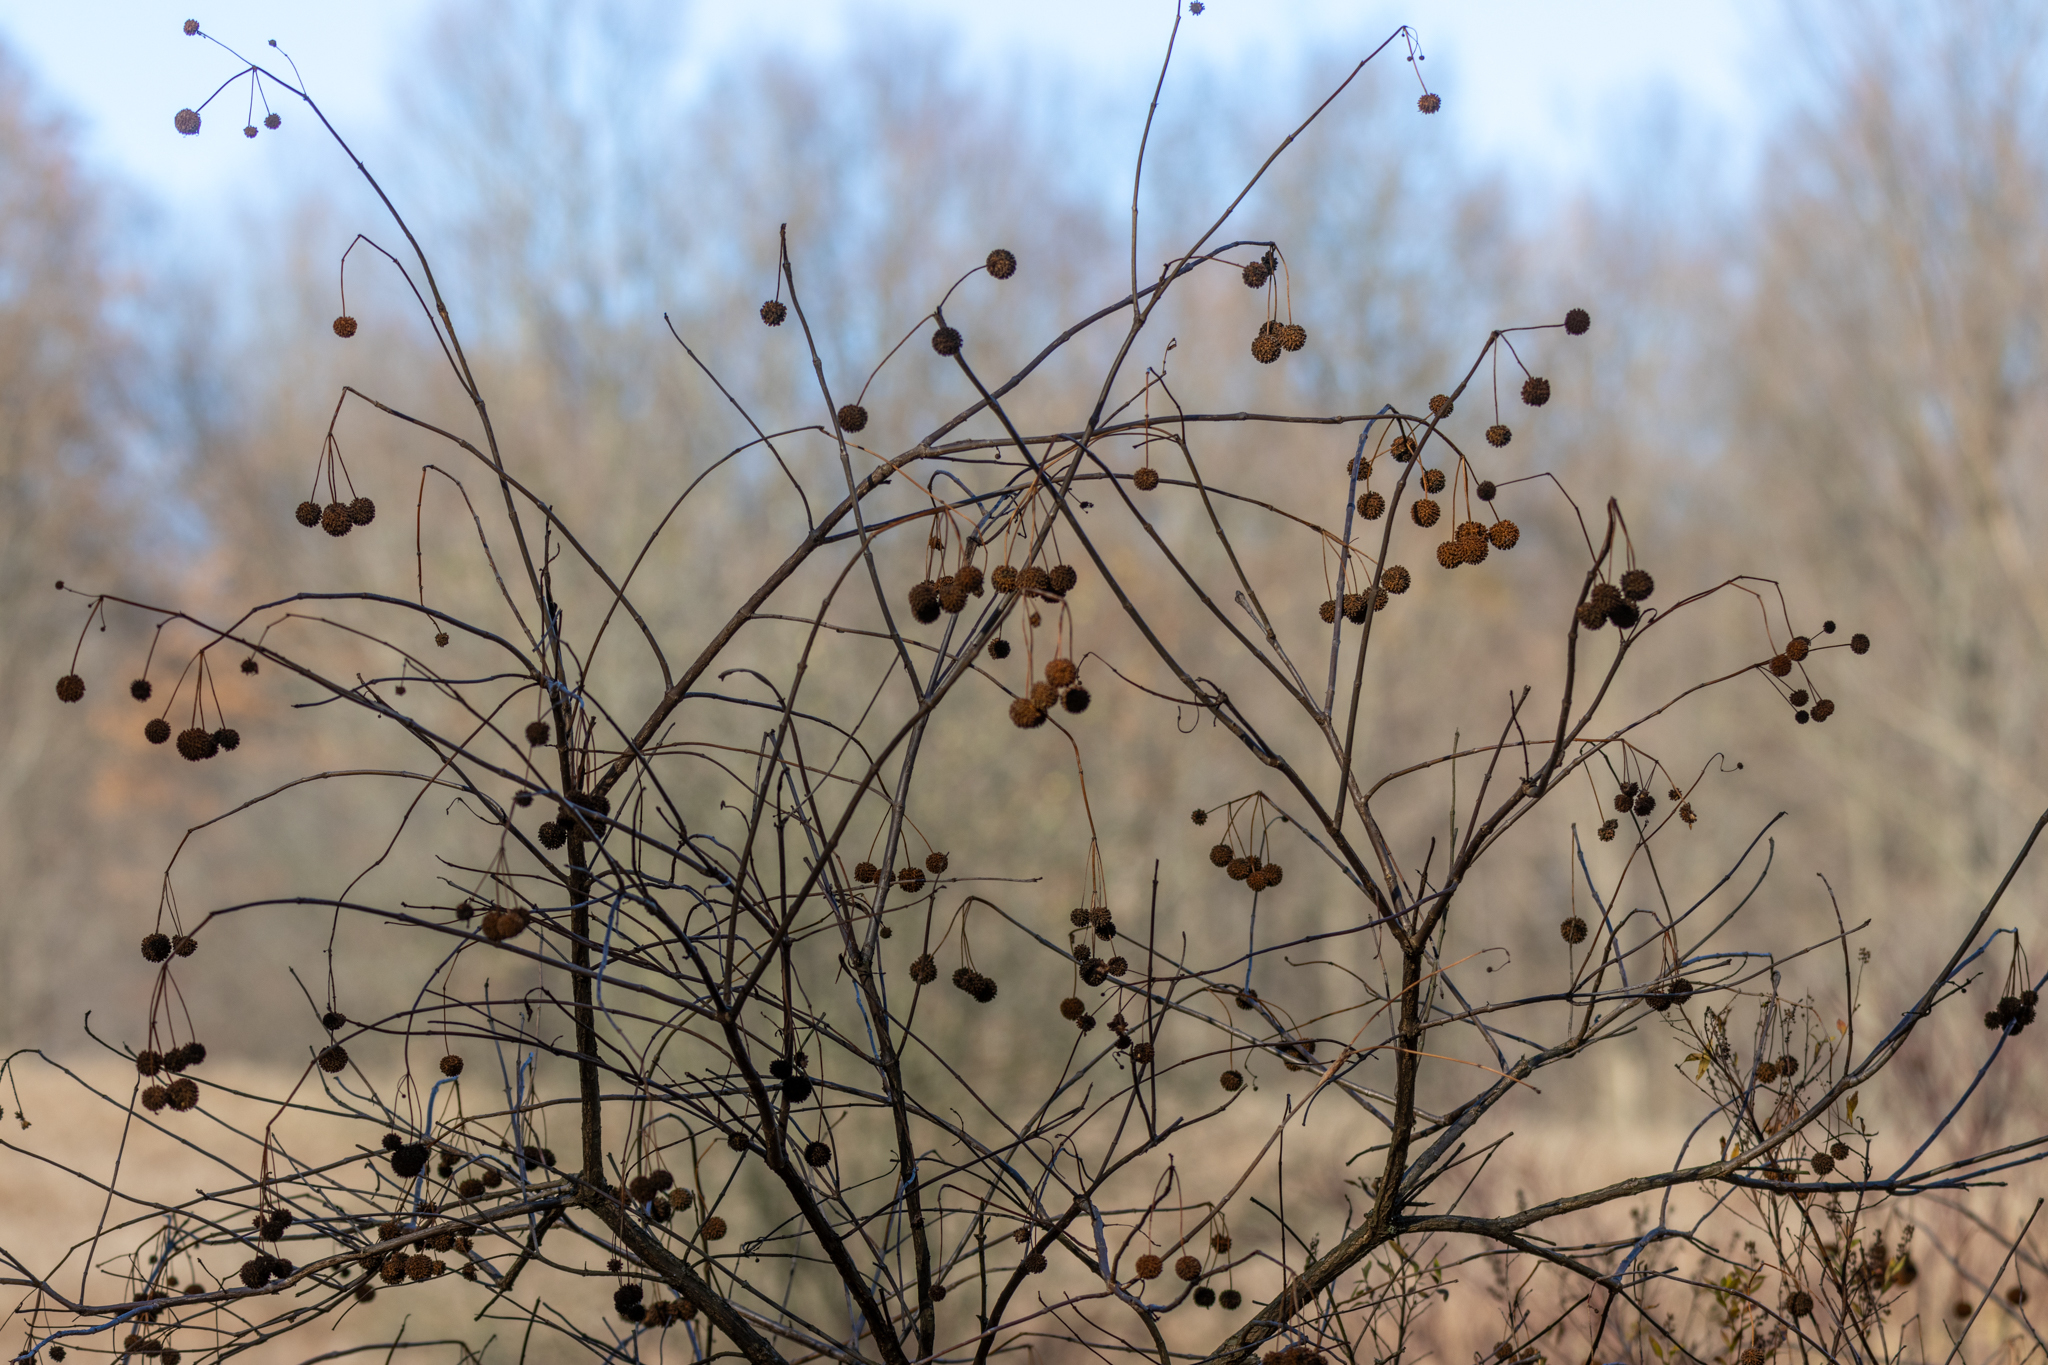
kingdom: Plantae
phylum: Tracheophyta
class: Magnoliopsida
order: Gentianales
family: Rubiaceae
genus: Cephalanthus
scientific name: Cephalanthus occidentalis
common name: Button-willow
